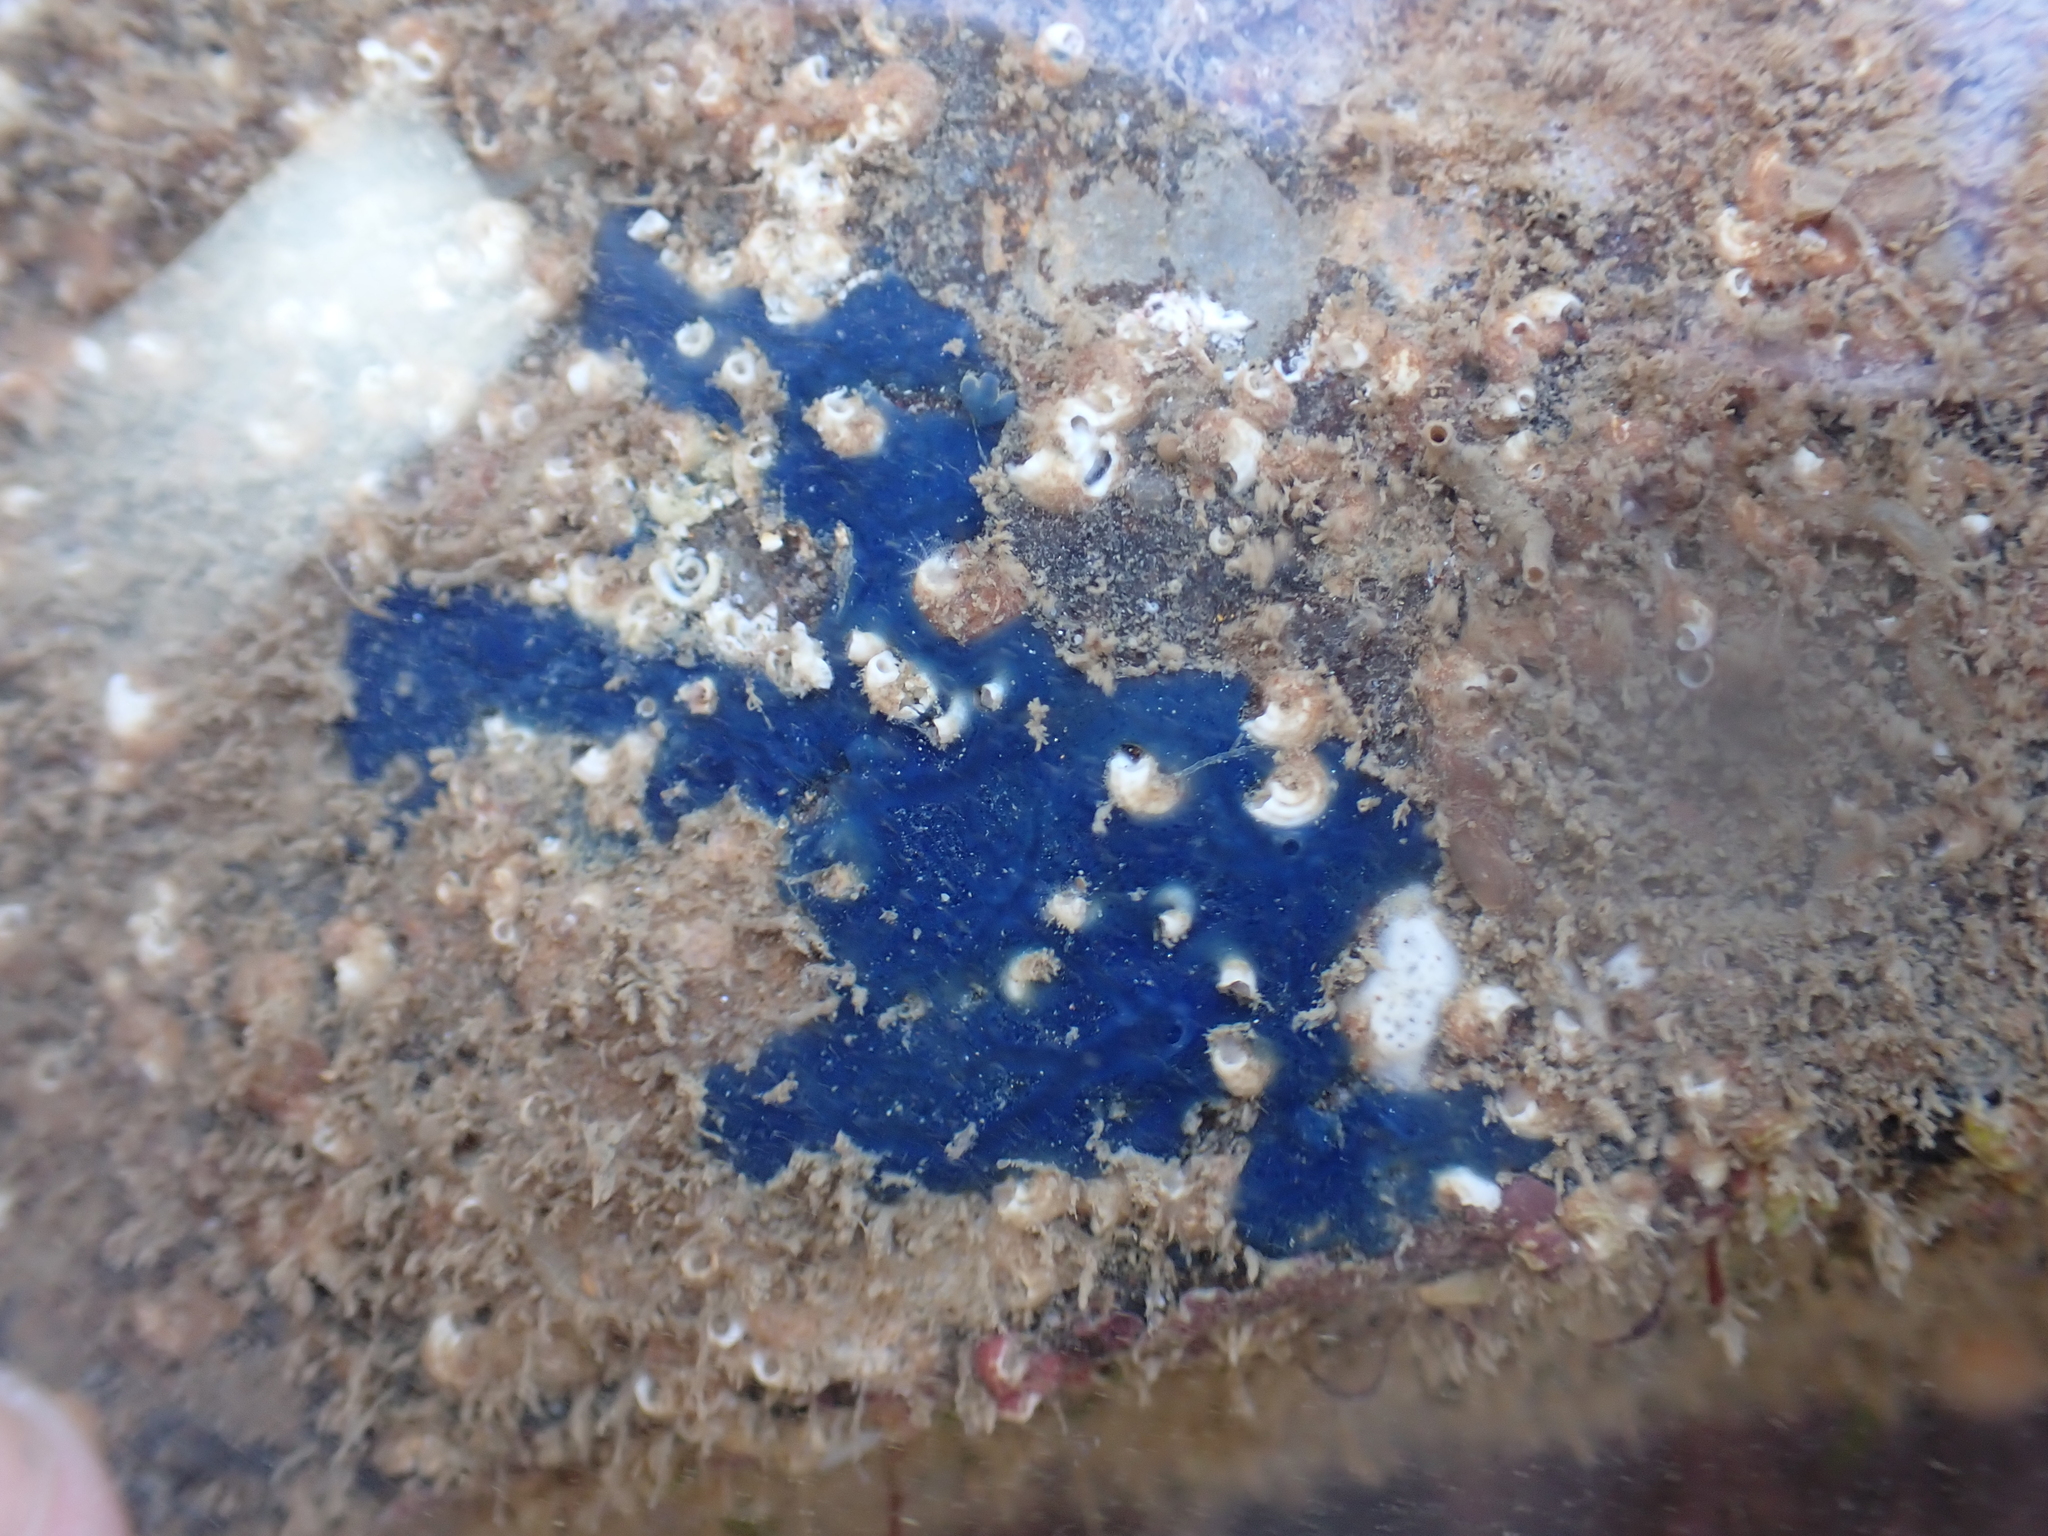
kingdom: Animalia
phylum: Porifera
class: Demospongiae
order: Suberitida
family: Suberitidae
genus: Terpios
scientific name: Terpios gelatinosus
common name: Blue encrusting sponge
